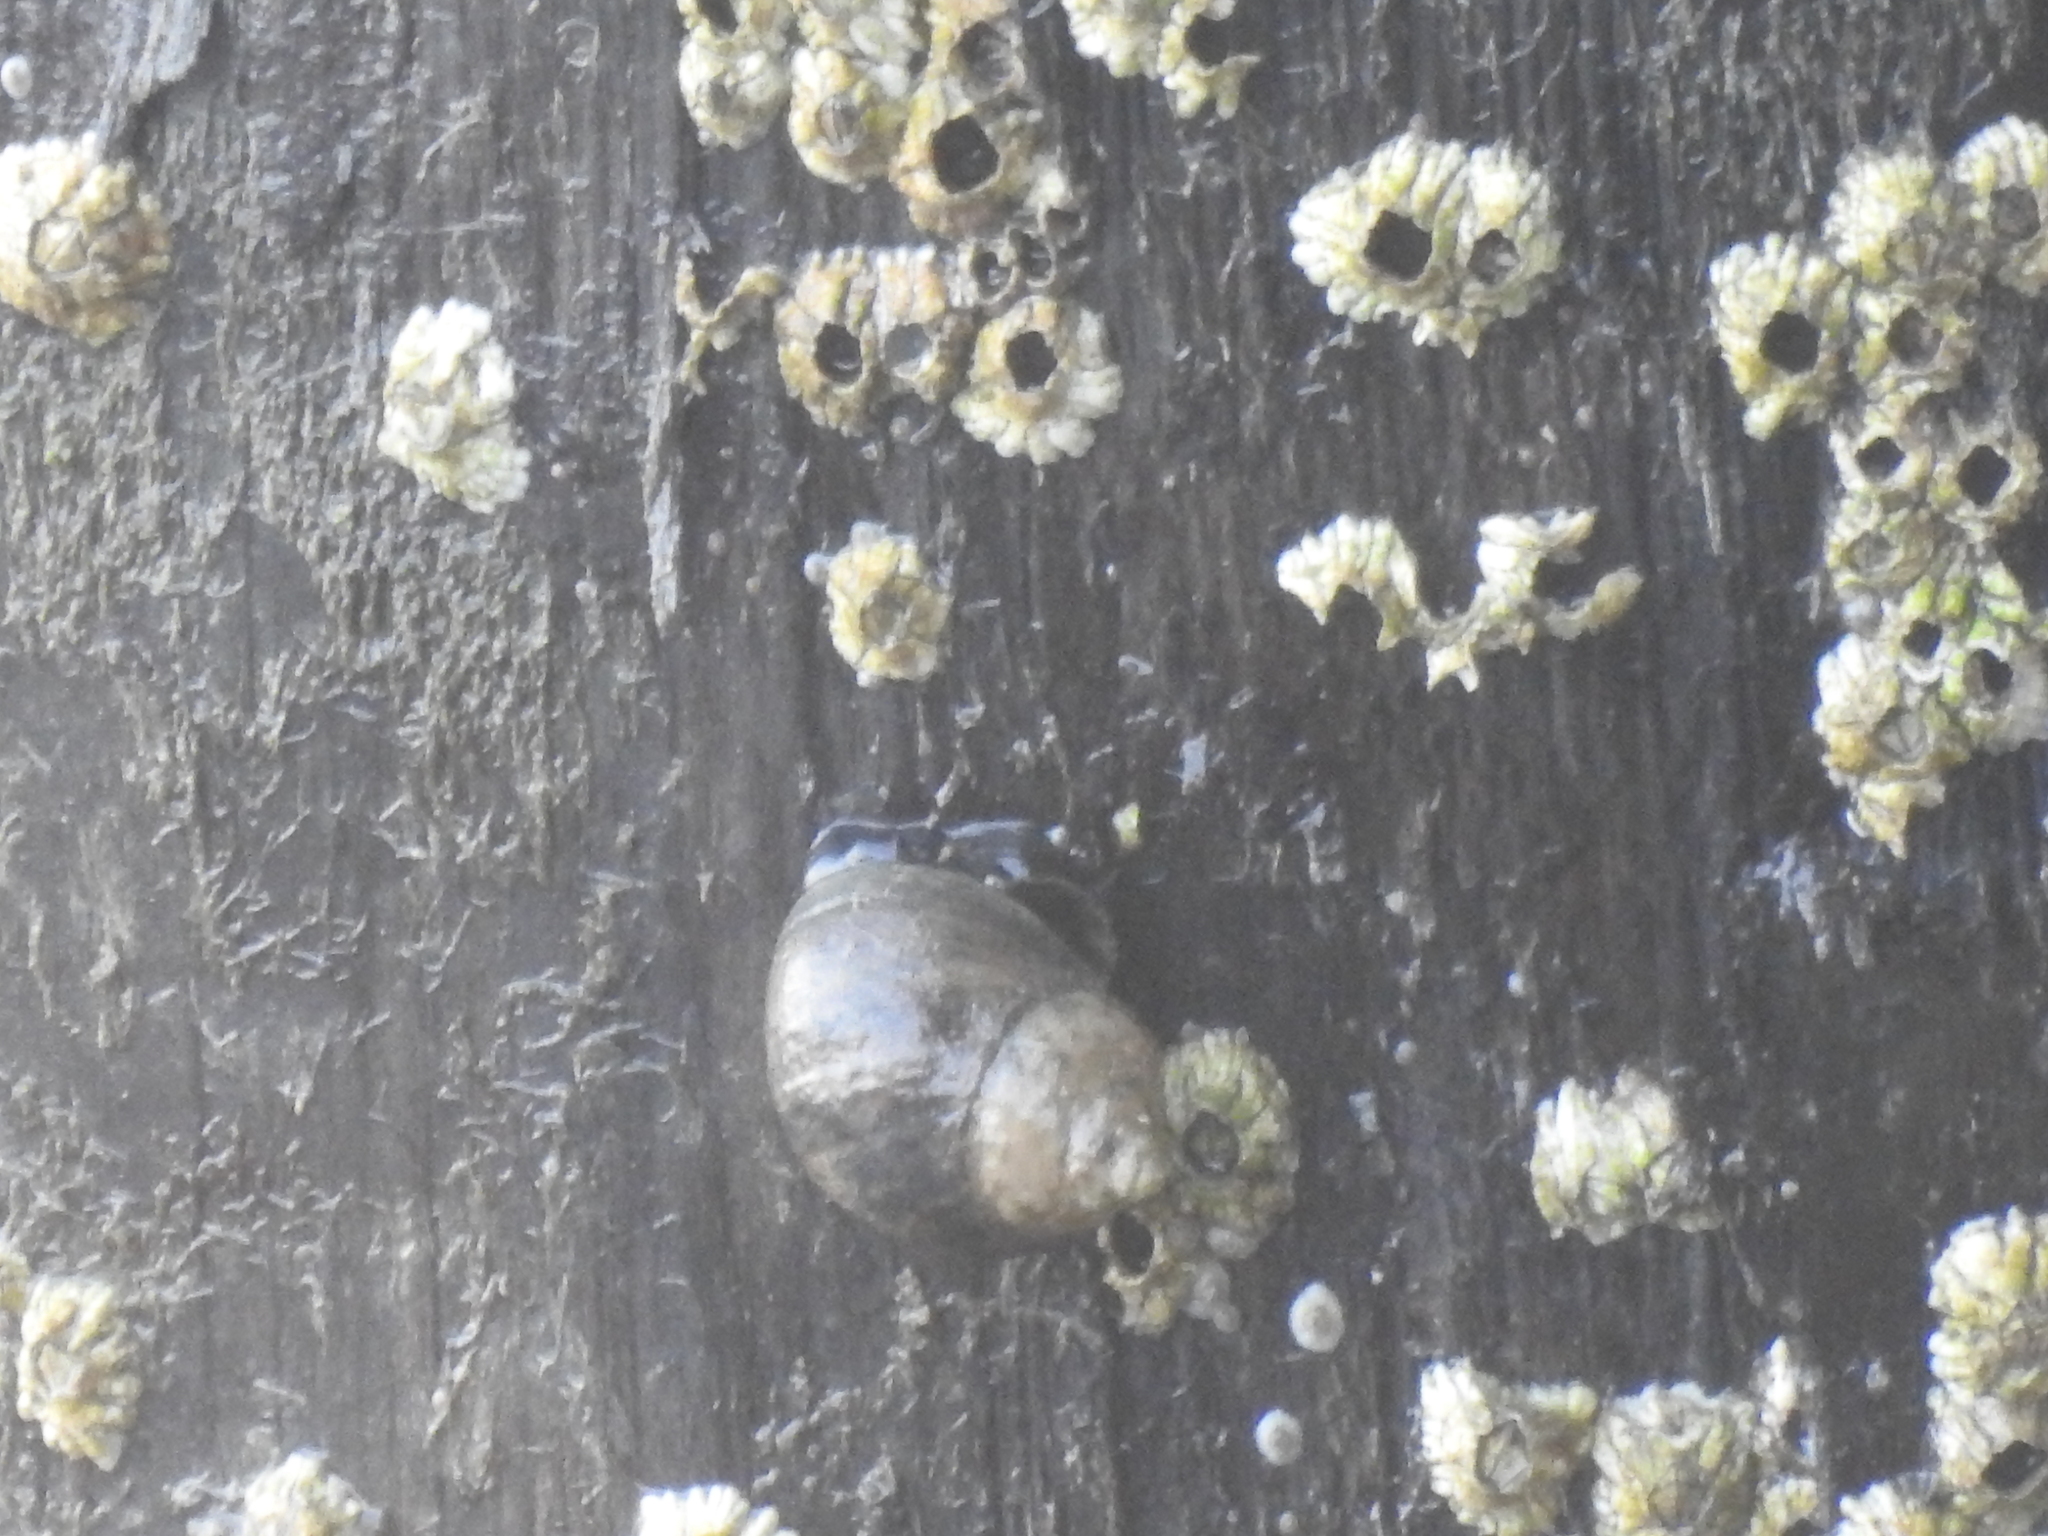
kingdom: Animalia
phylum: Mollusca
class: Gastropoda
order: Littorinimorpha
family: Littorinidae
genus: Littorina
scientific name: Littorina littorea
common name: Common periwinkle
